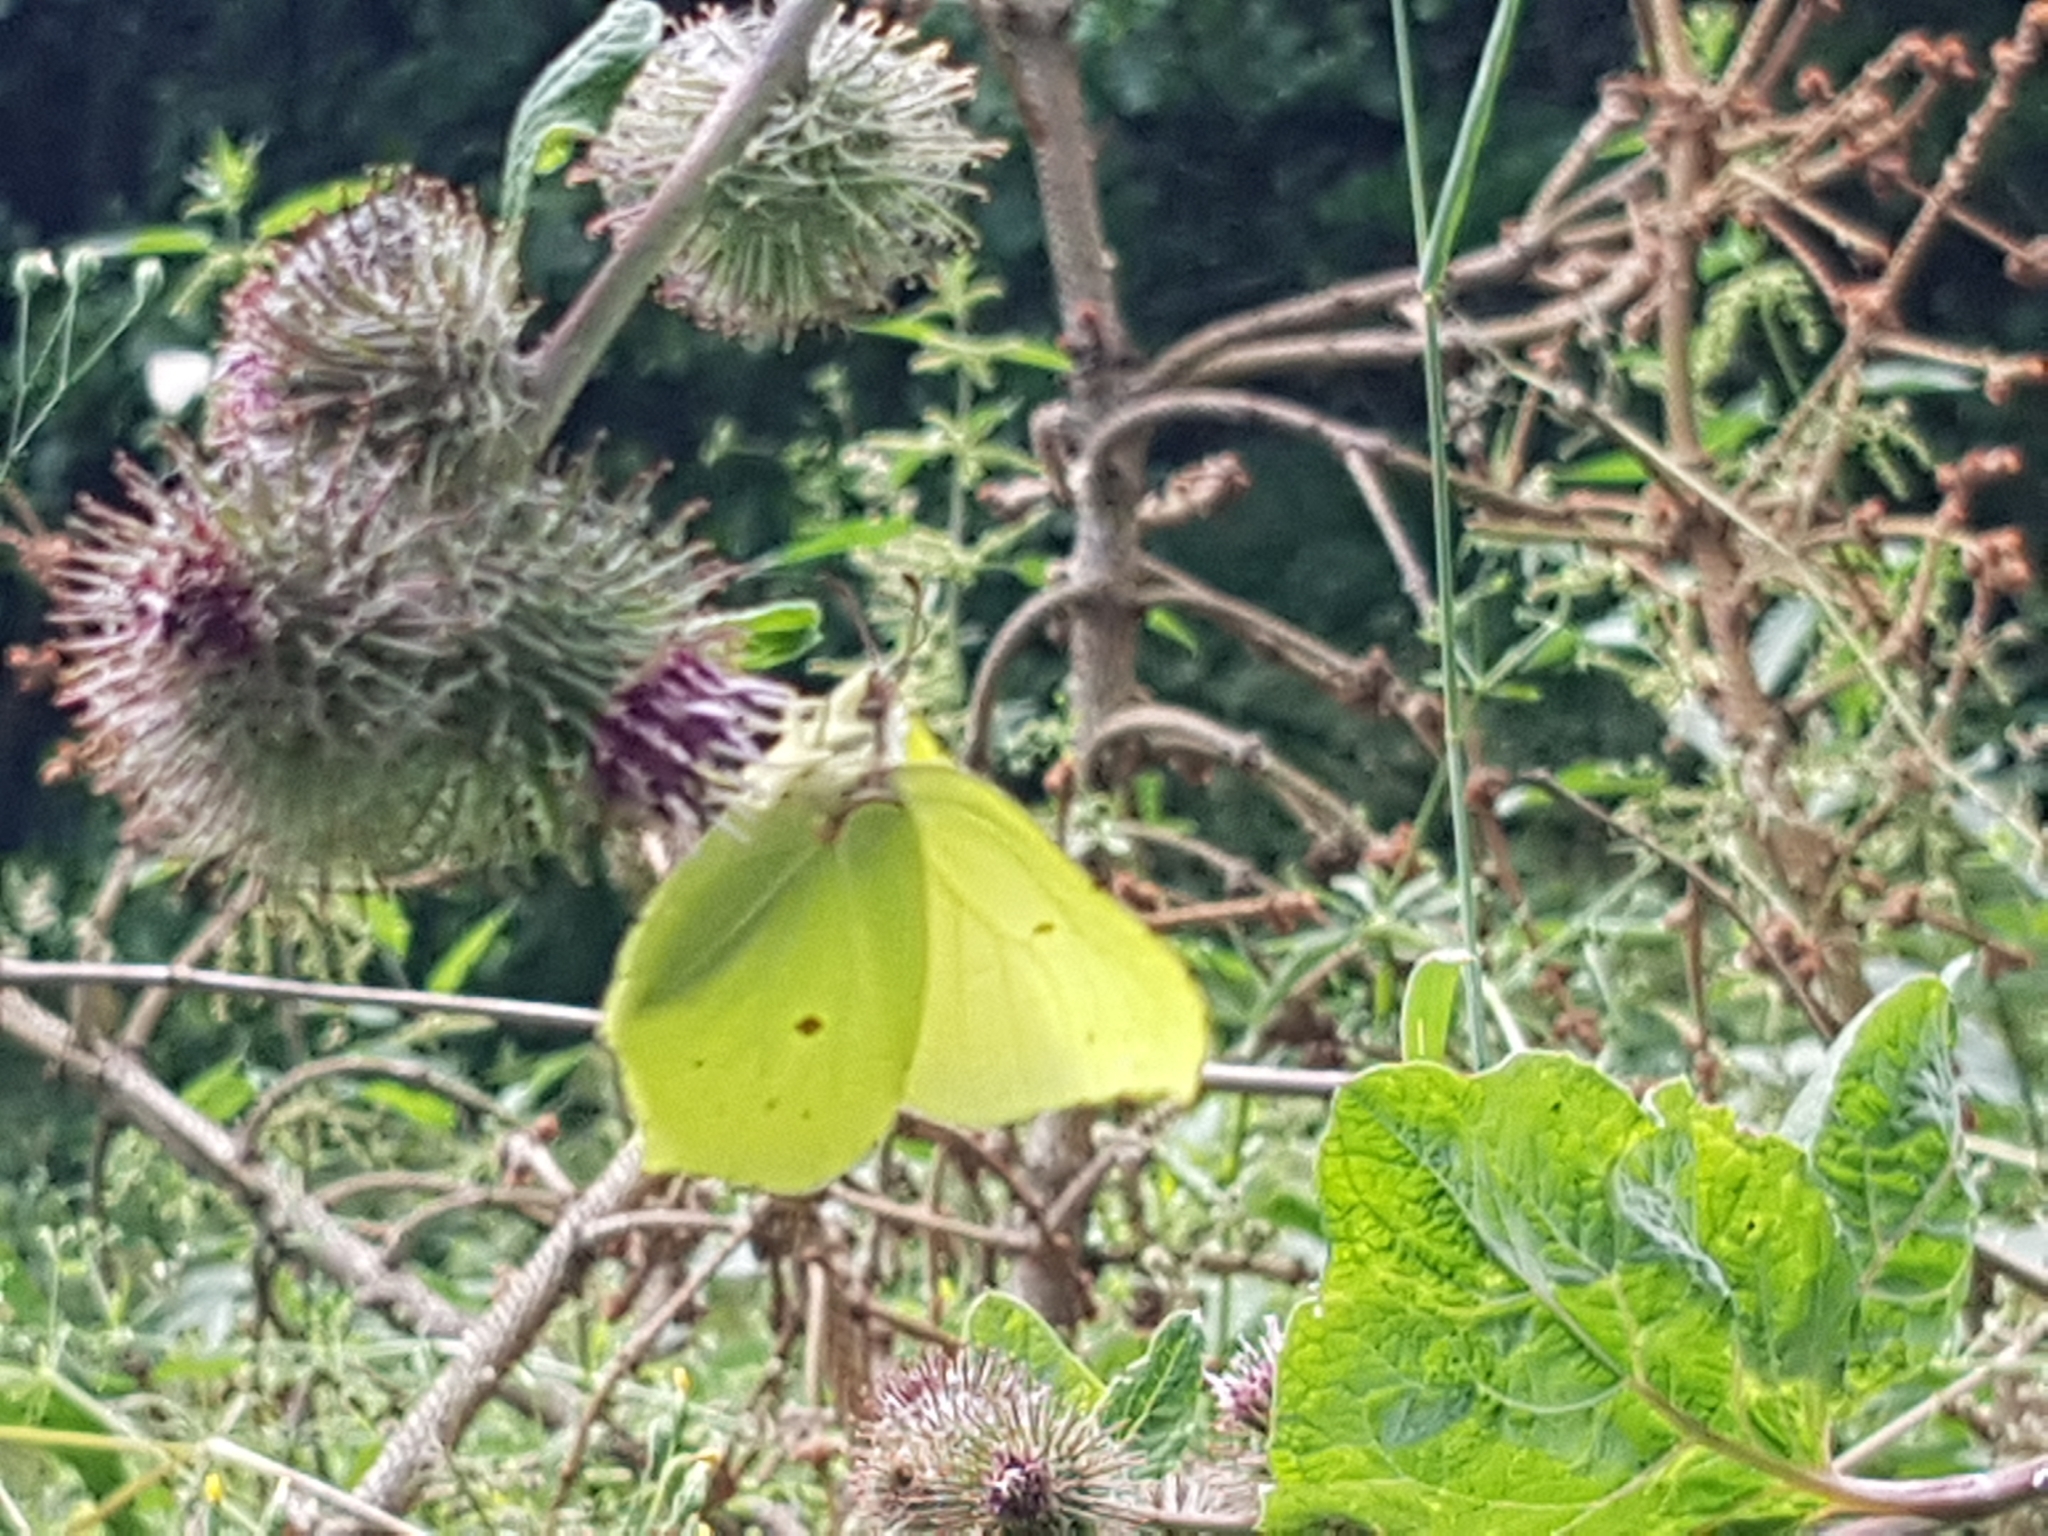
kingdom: Animalia
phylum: Arthropoda
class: Insecta
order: Lepidoptera
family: Pieridae
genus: Gonepteryx
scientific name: Gonepteryx rhamni
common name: Brimstone
